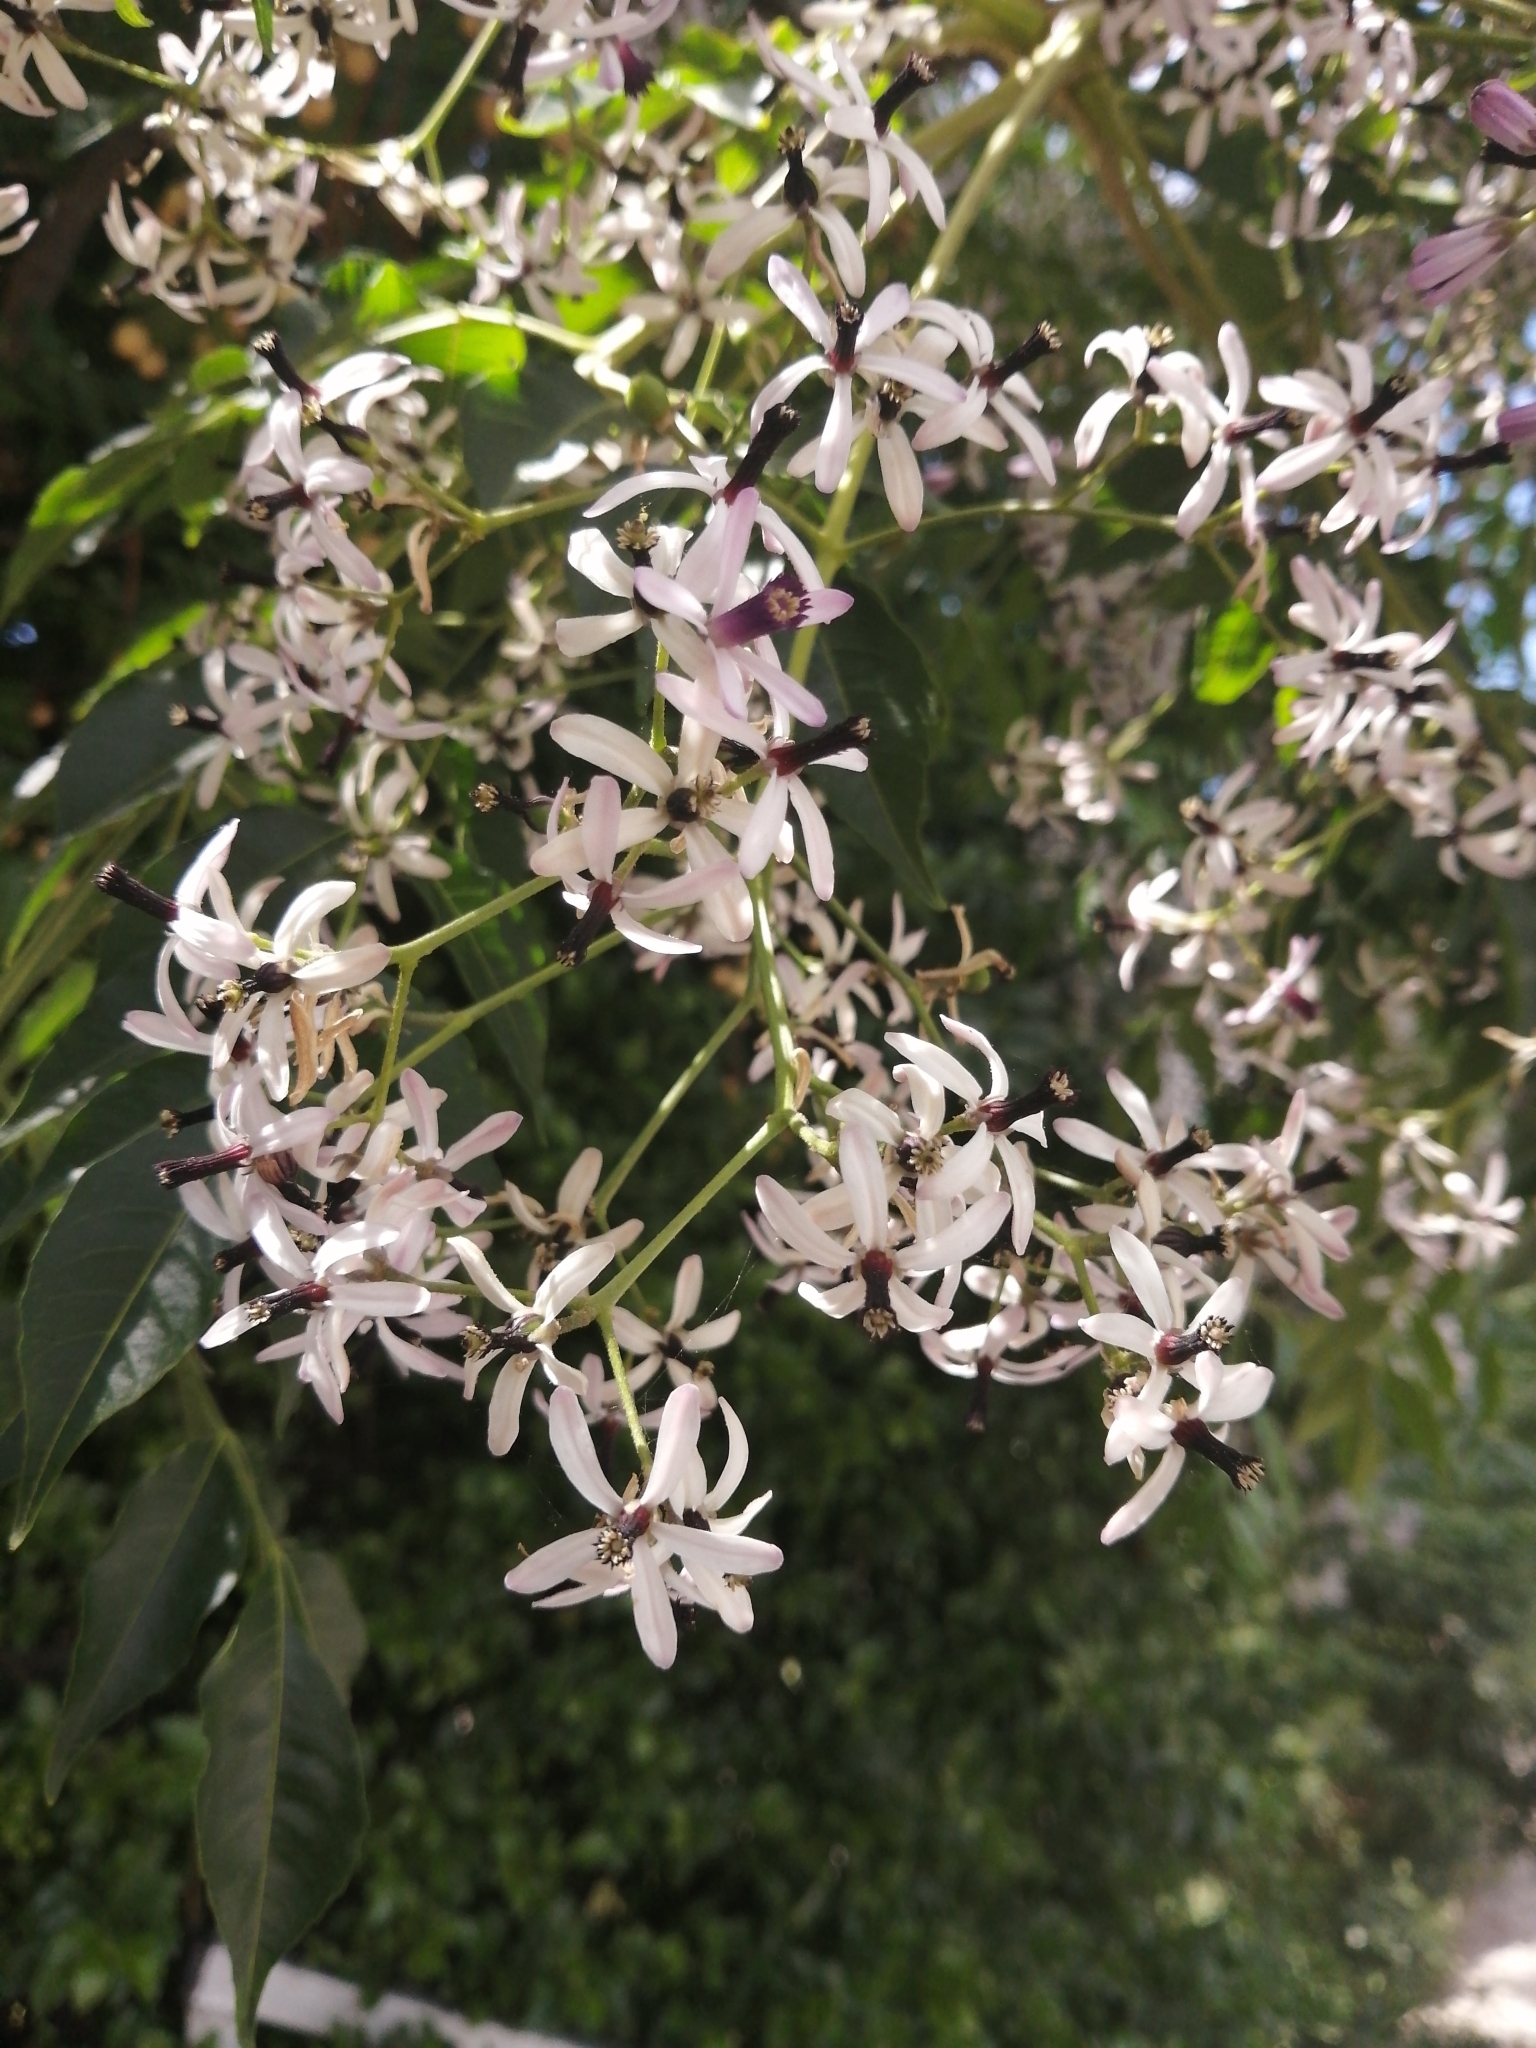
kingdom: Plantae
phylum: Tracheophyta
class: Magnoliopsida
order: Sapindales
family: Meliaceae
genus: Melia
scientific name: Melia azedarach
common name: Chinaberrytree
